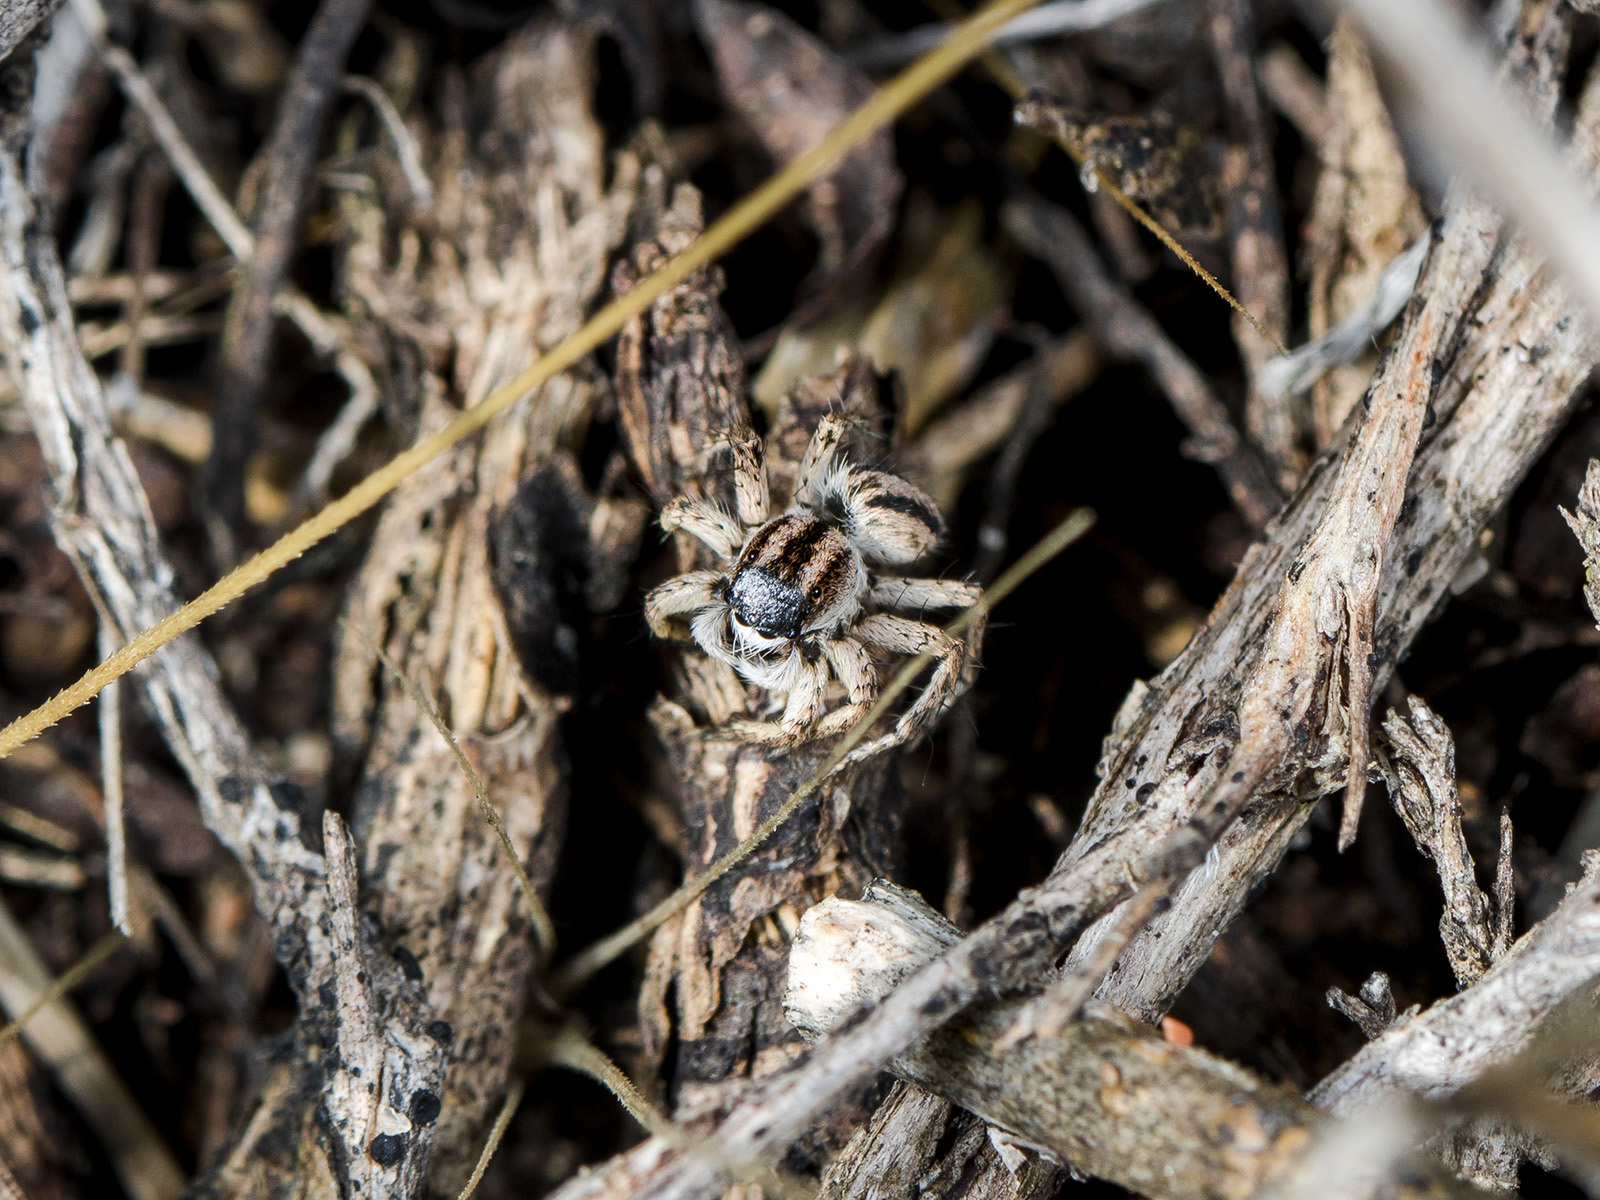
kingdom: Animalia
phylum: Arthropoda
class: Arachnida
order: Araneae
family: Salticidae
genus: Aelurillus
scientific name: Aelurillus m-nigrum
